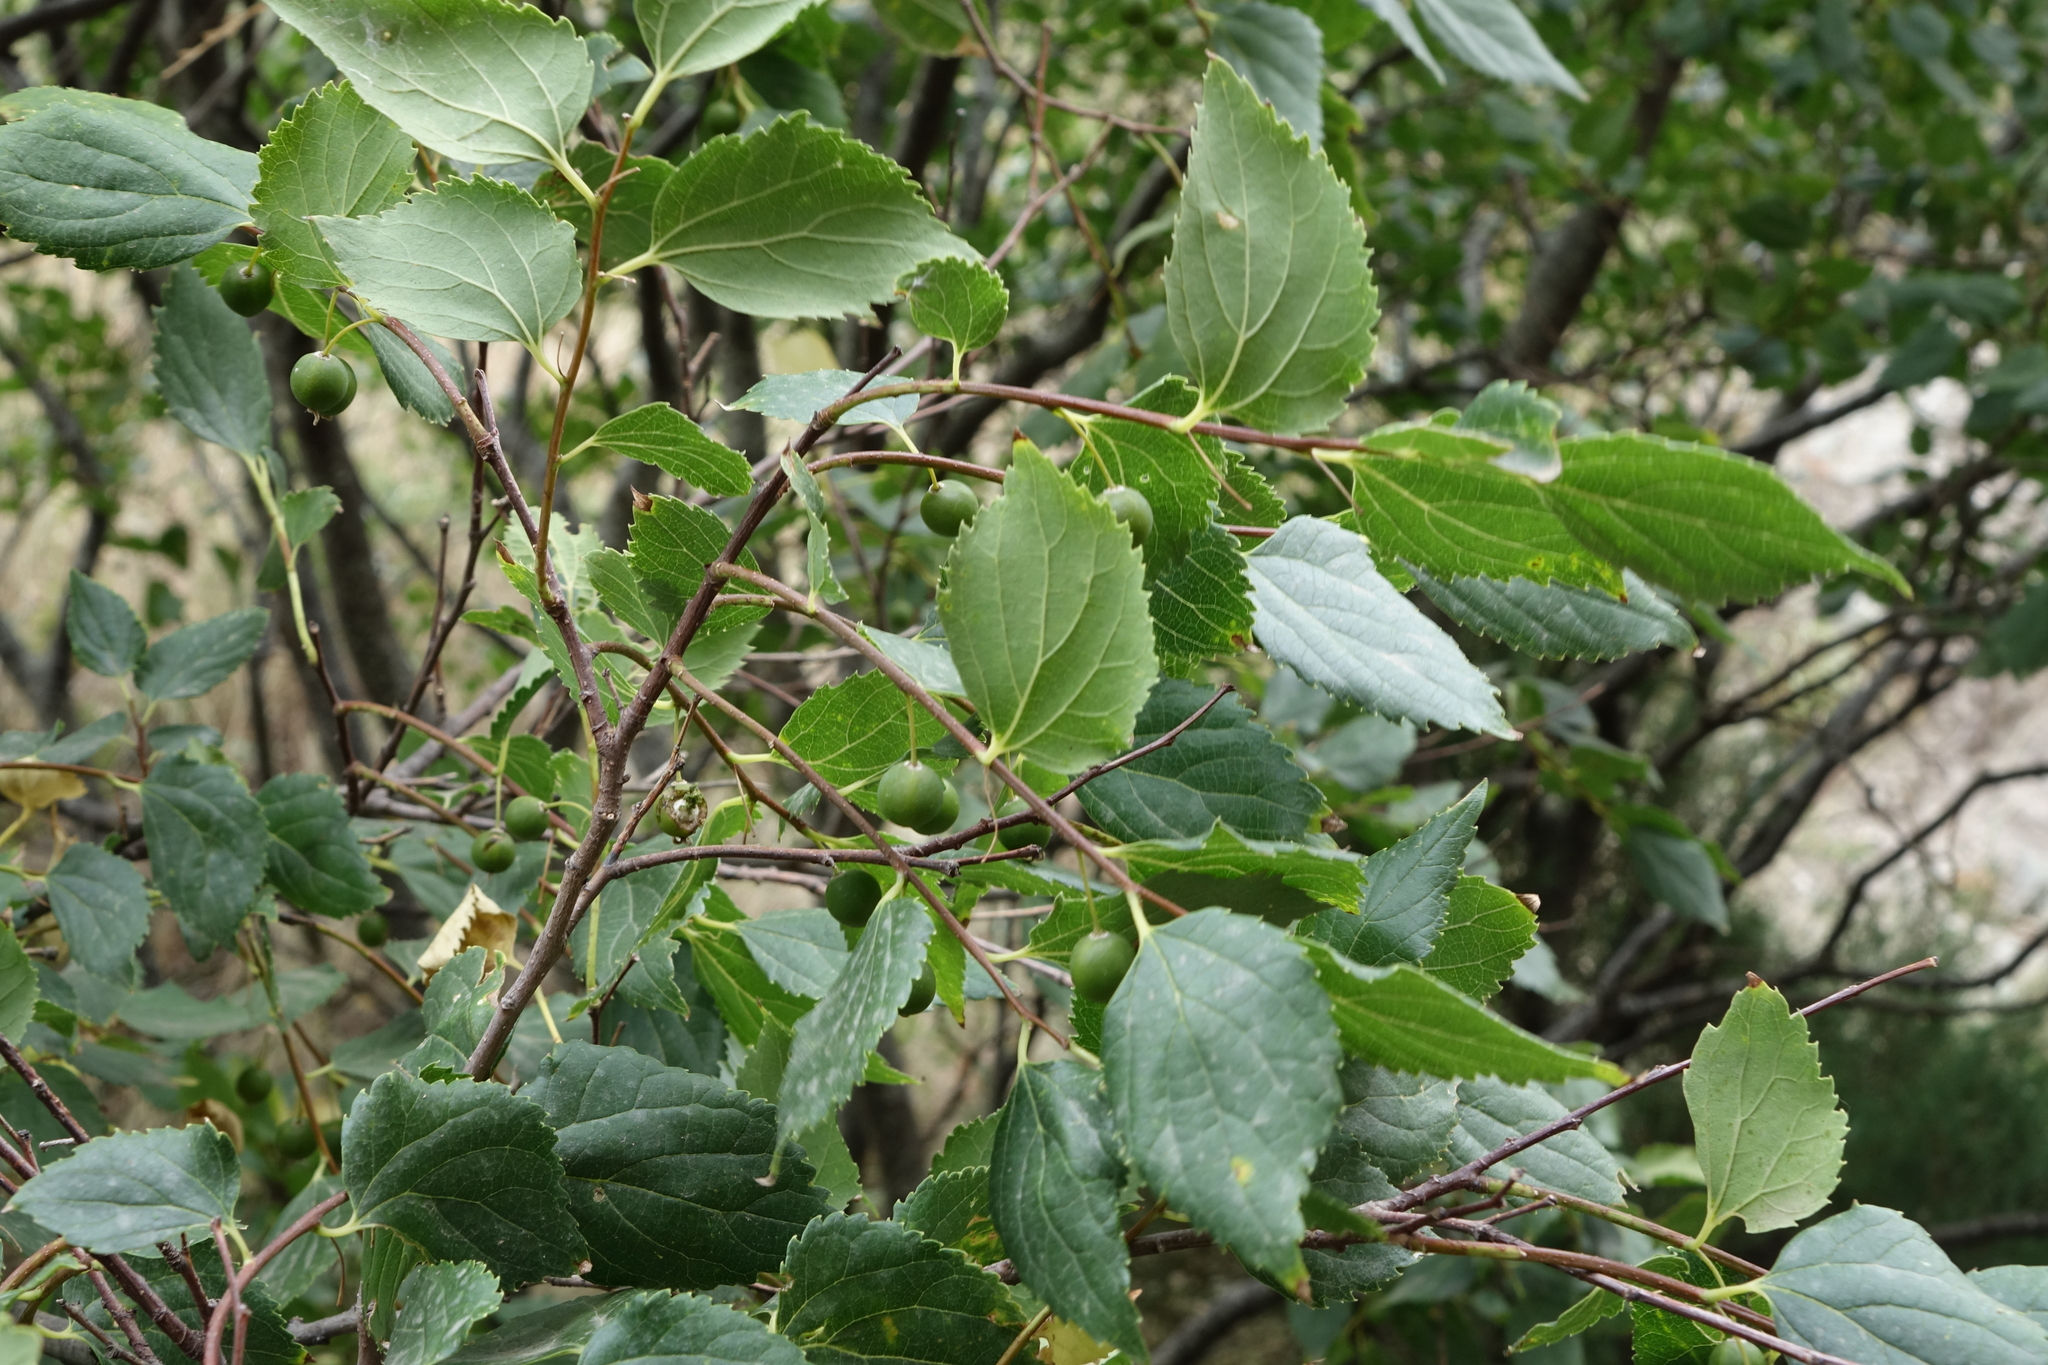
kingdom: Plantae
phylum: Tracheophyta
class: Magnoliopsida
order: Rosales
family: Cannabaceae
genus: Celtis
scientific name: Celtis glabrata
